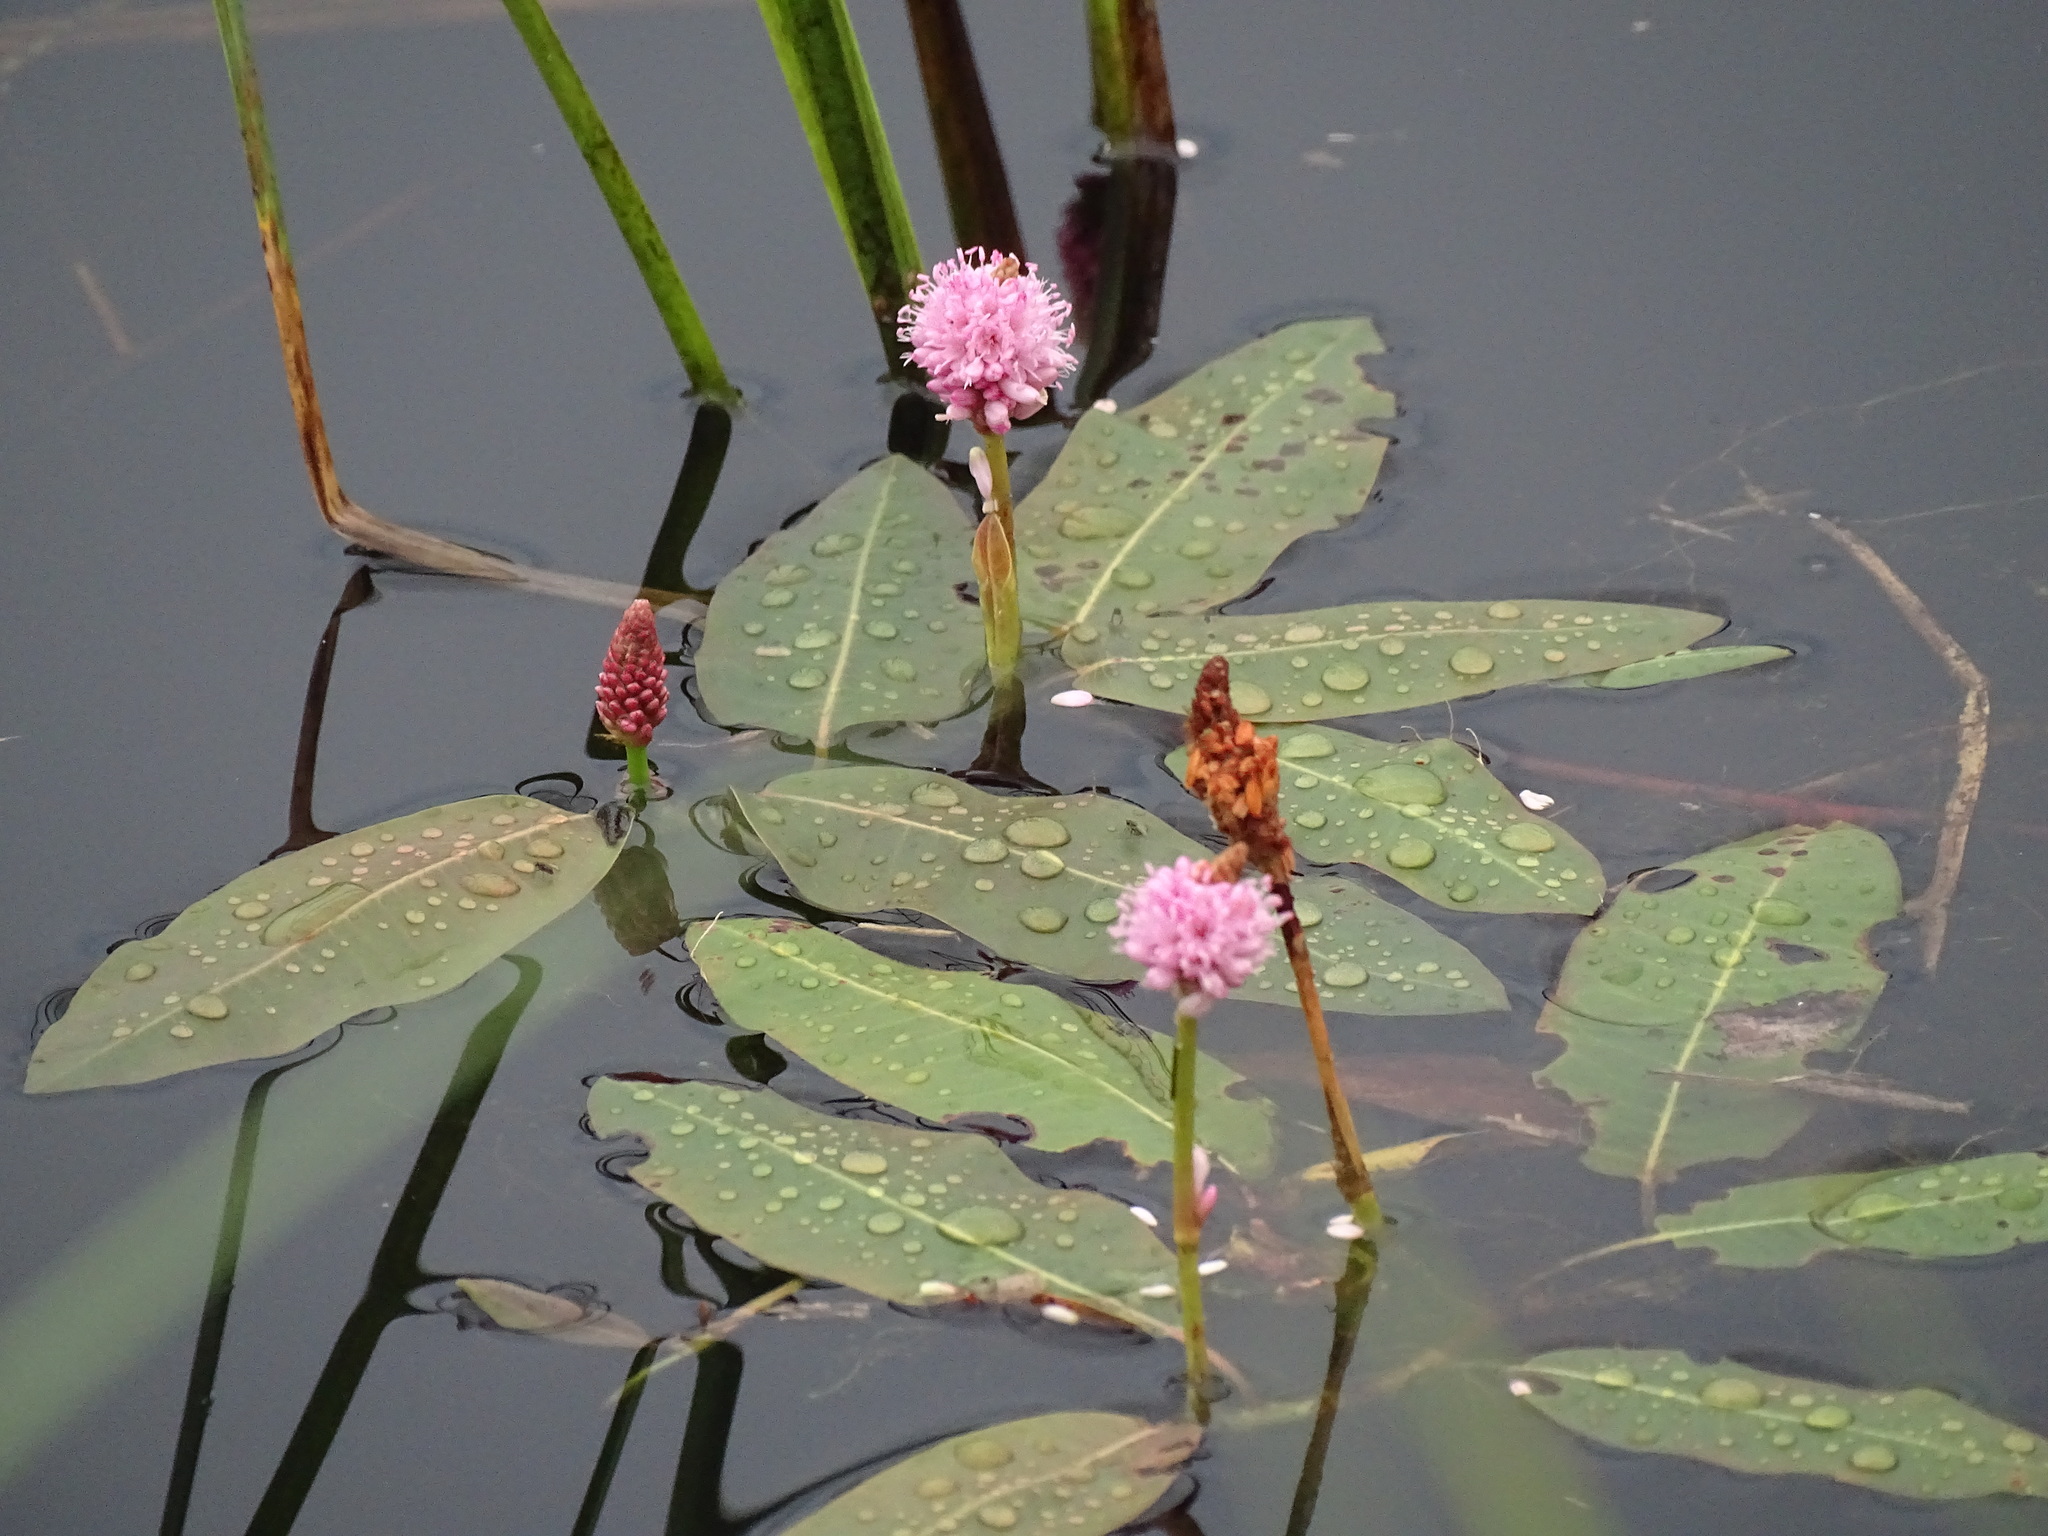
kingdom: Plantae
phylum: Tracheophyta
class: Magnoliopsida
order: Caryophyllales
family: Polygonaceae
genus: Persicaria
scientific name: Persicaria amphibia
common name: Amphibious bistort
